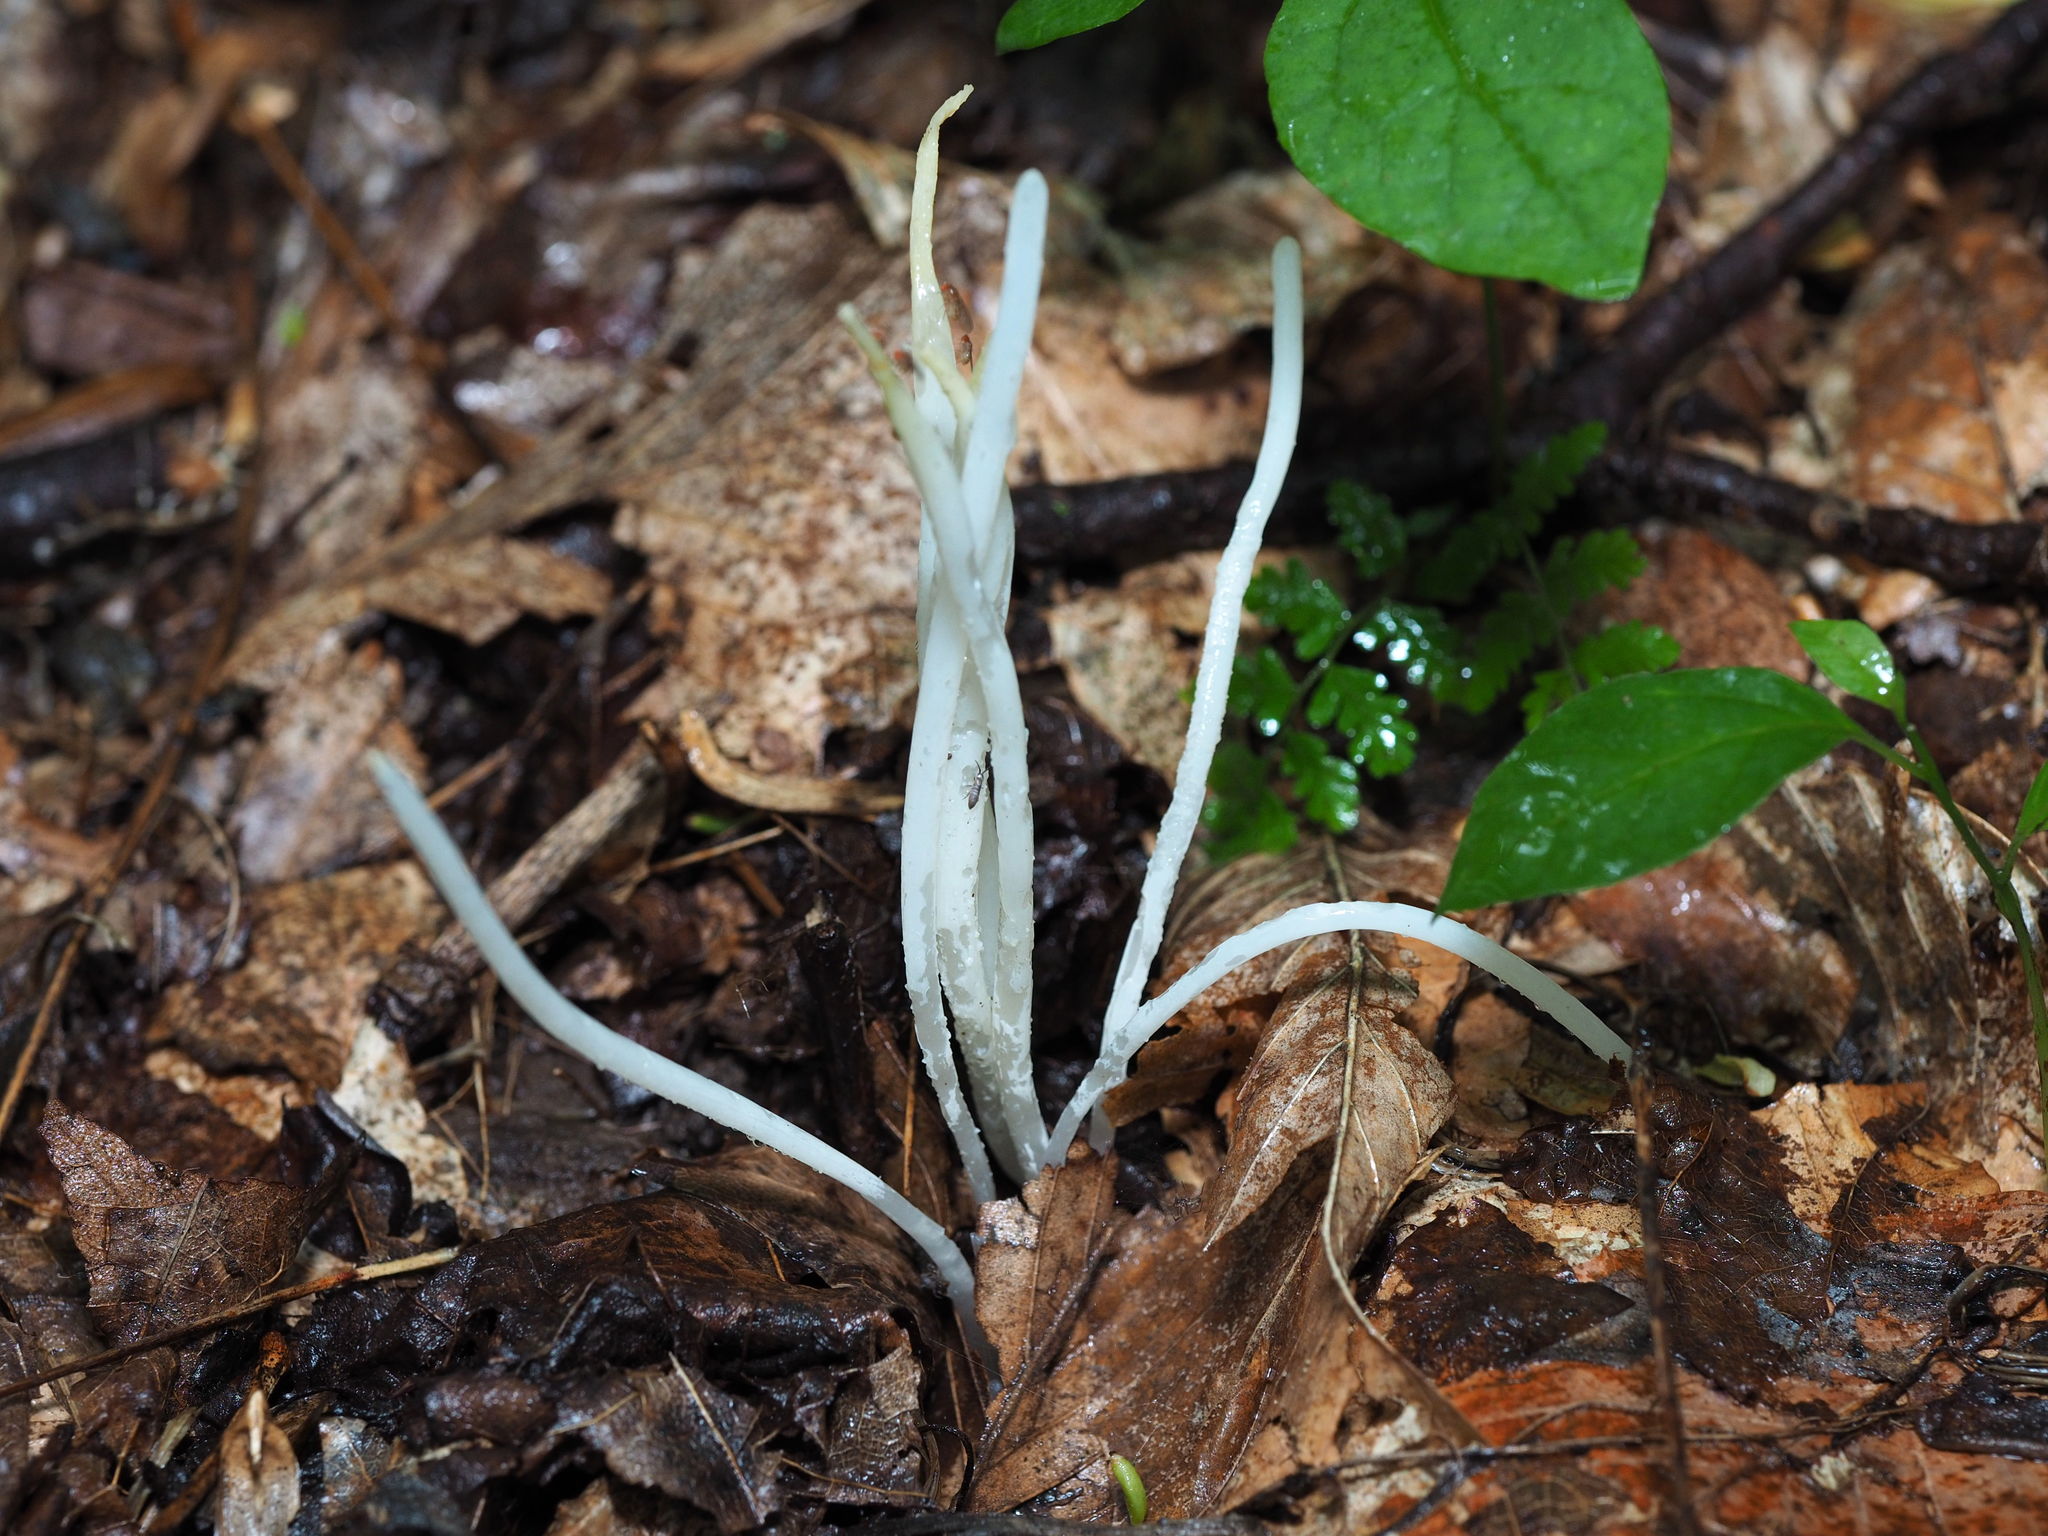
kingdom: Fungi
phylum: Basidiomycota
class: Agaricomycetes
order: Agaricales
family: Clavariaceae
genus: Clavaria
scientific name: Clavaria fragilis
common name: White spindles
